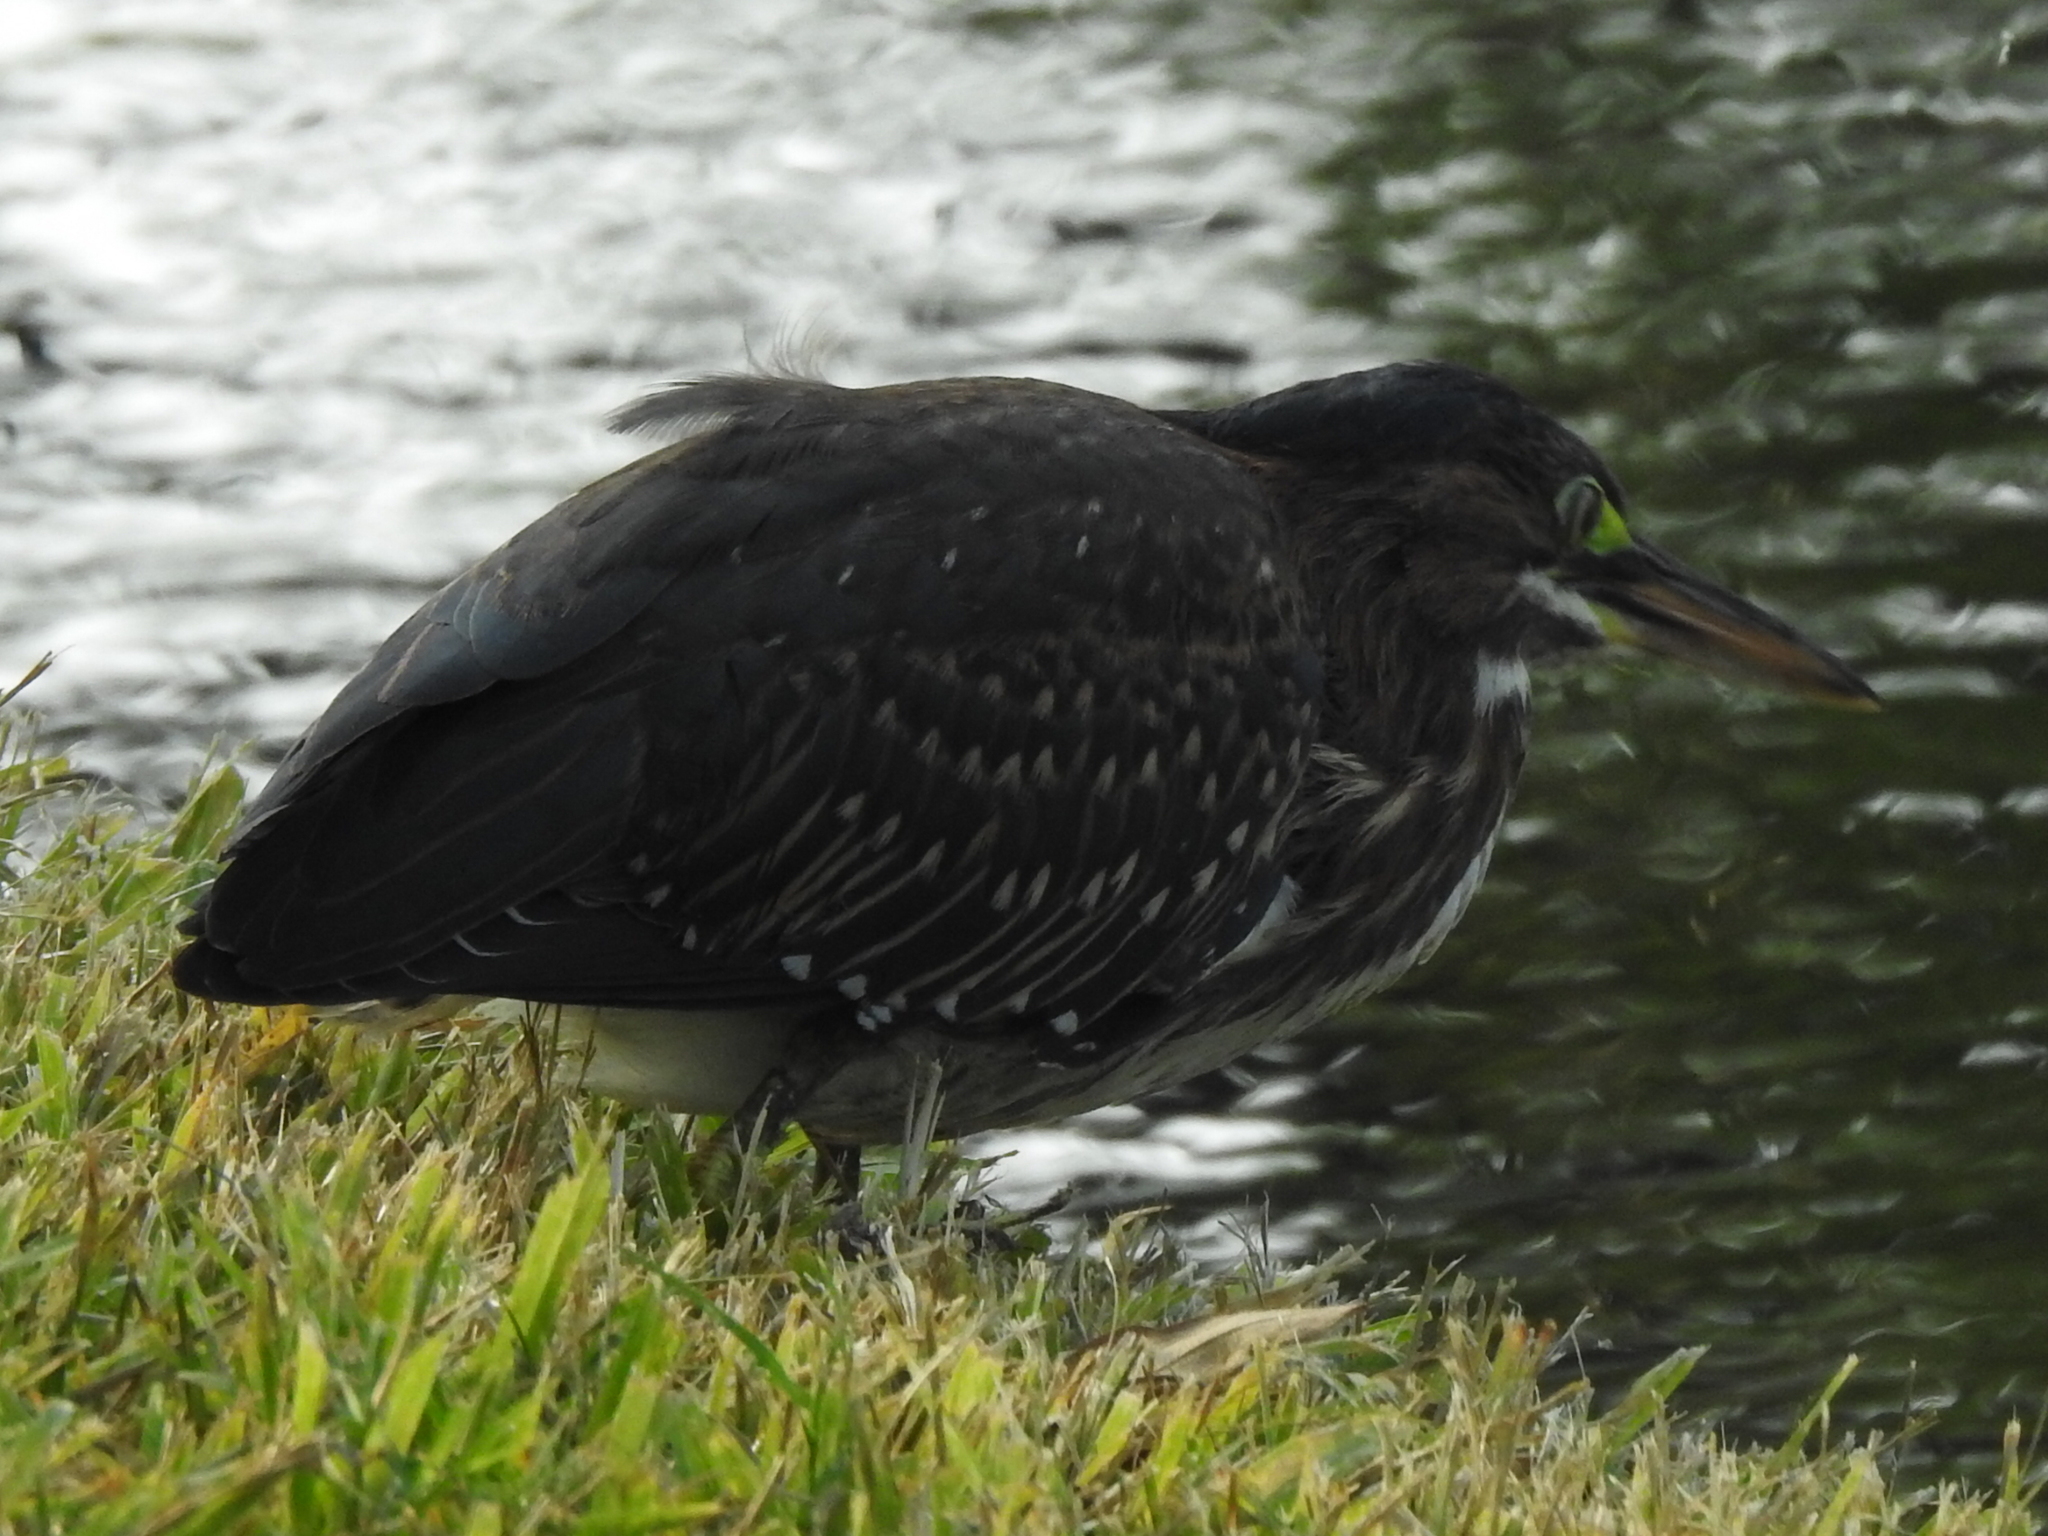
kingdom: Animalia
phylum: Chordata
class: Aves
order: Pelecaniformes
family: Ardeidae
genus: Butorides
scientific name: Butorides virescens
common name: Green heron
